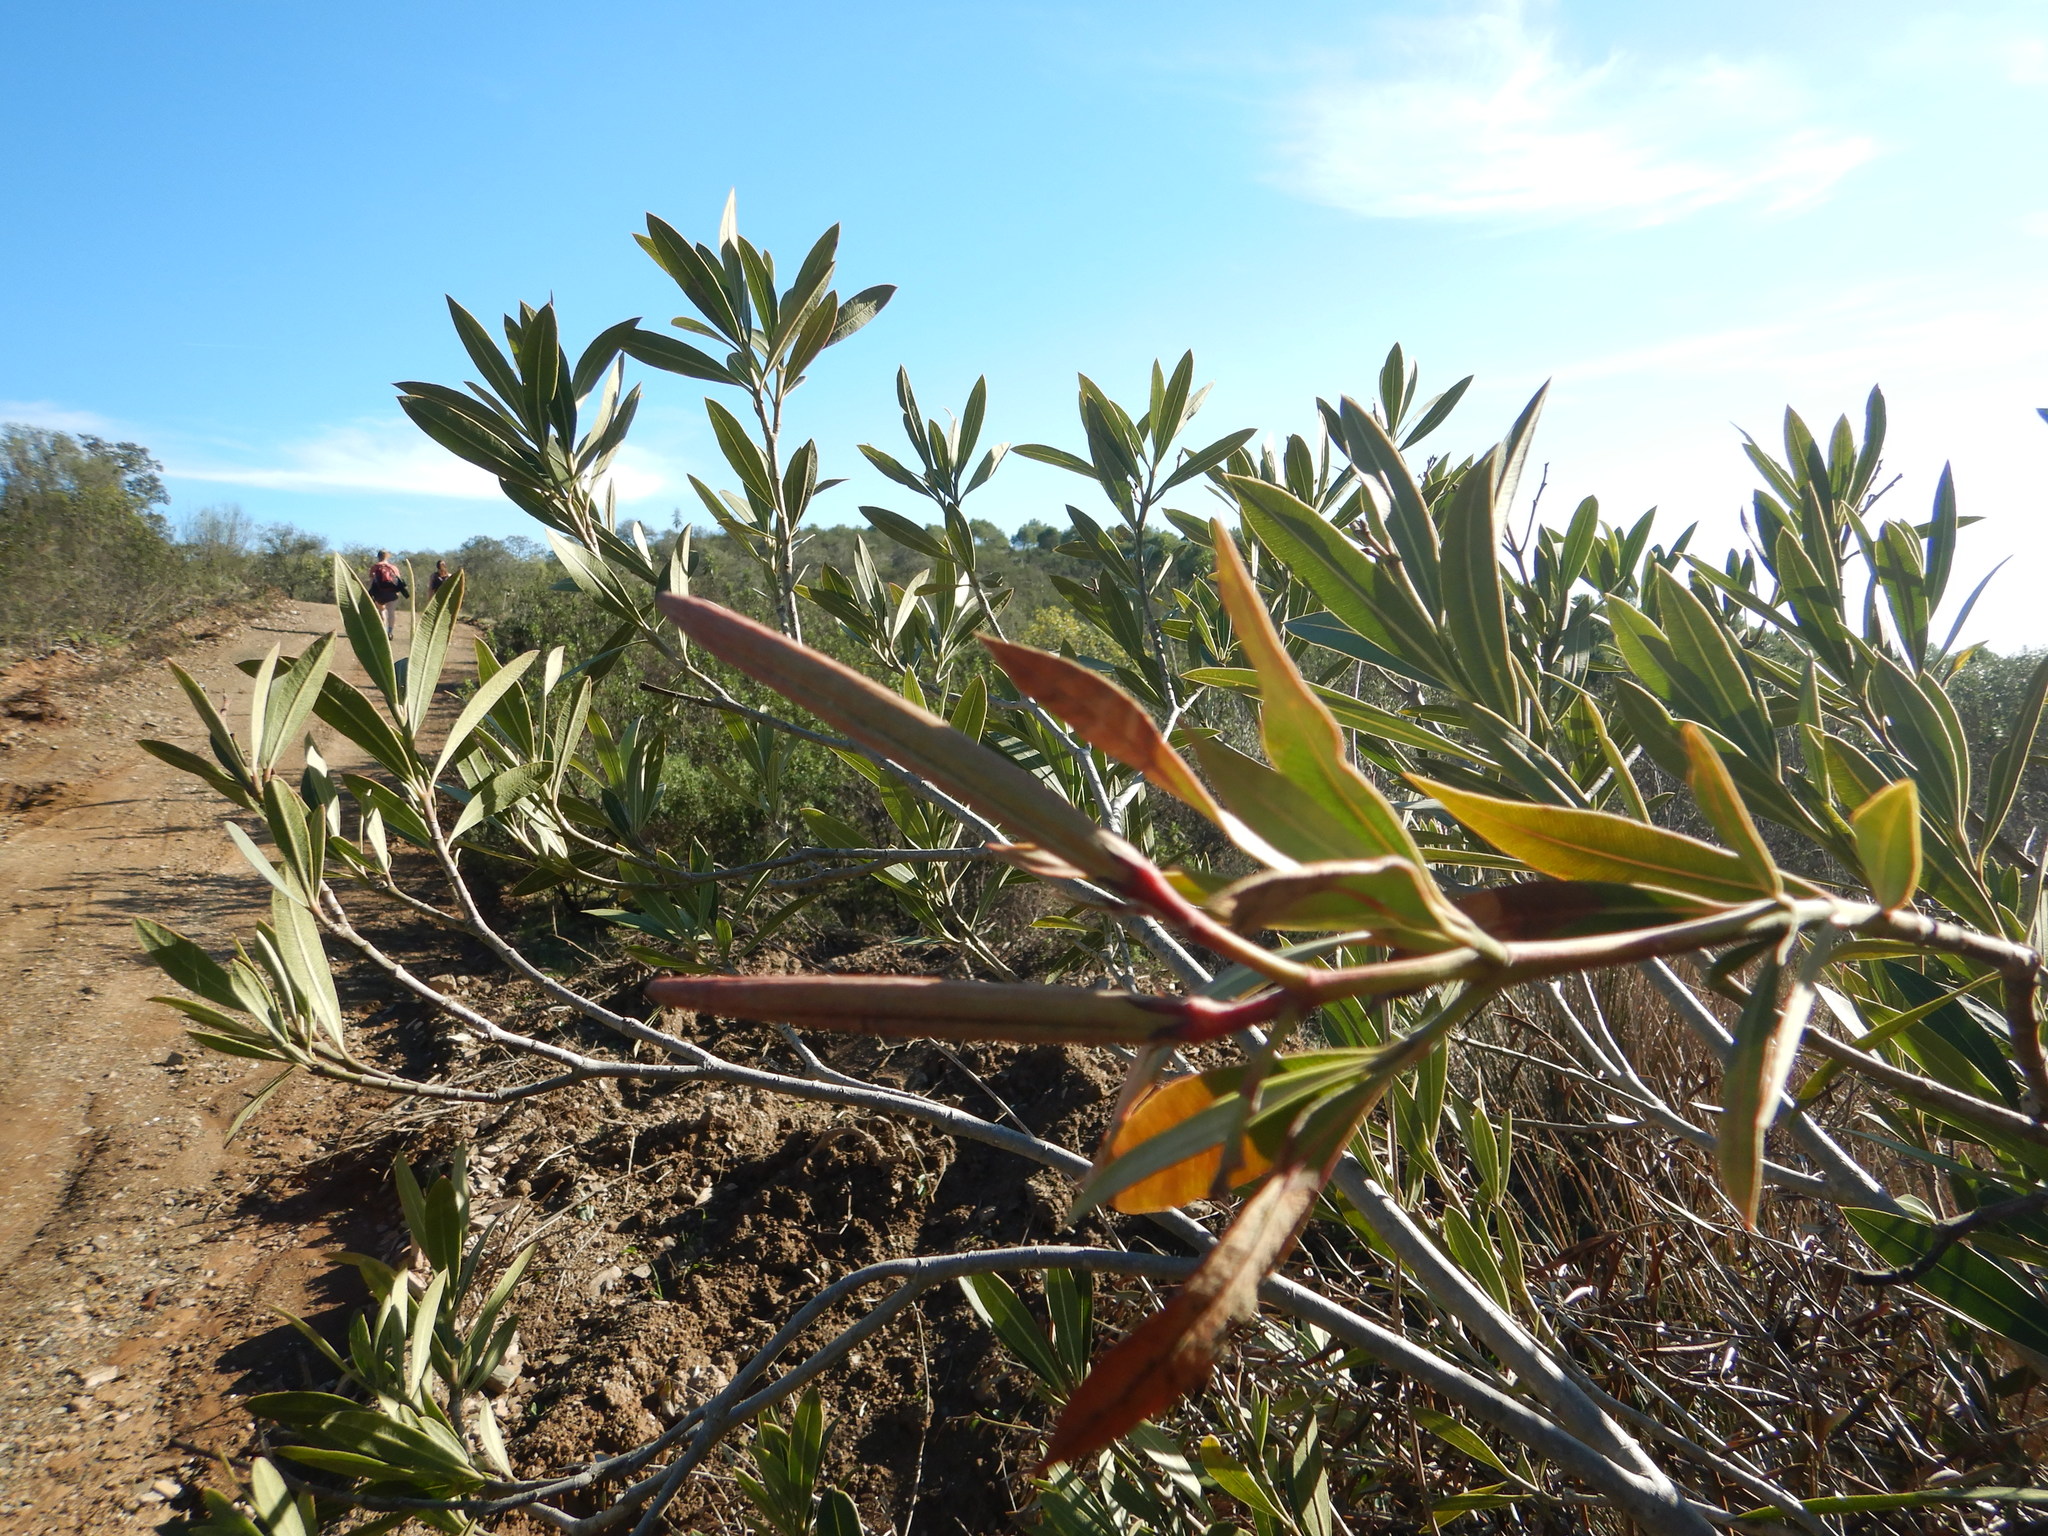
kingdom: Plantae
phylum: Tracheophyta
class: Magnoliopsida
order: Gentianales
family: Apocynaceae
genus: Nerium
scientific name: Nerium oleander
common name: Oleander
